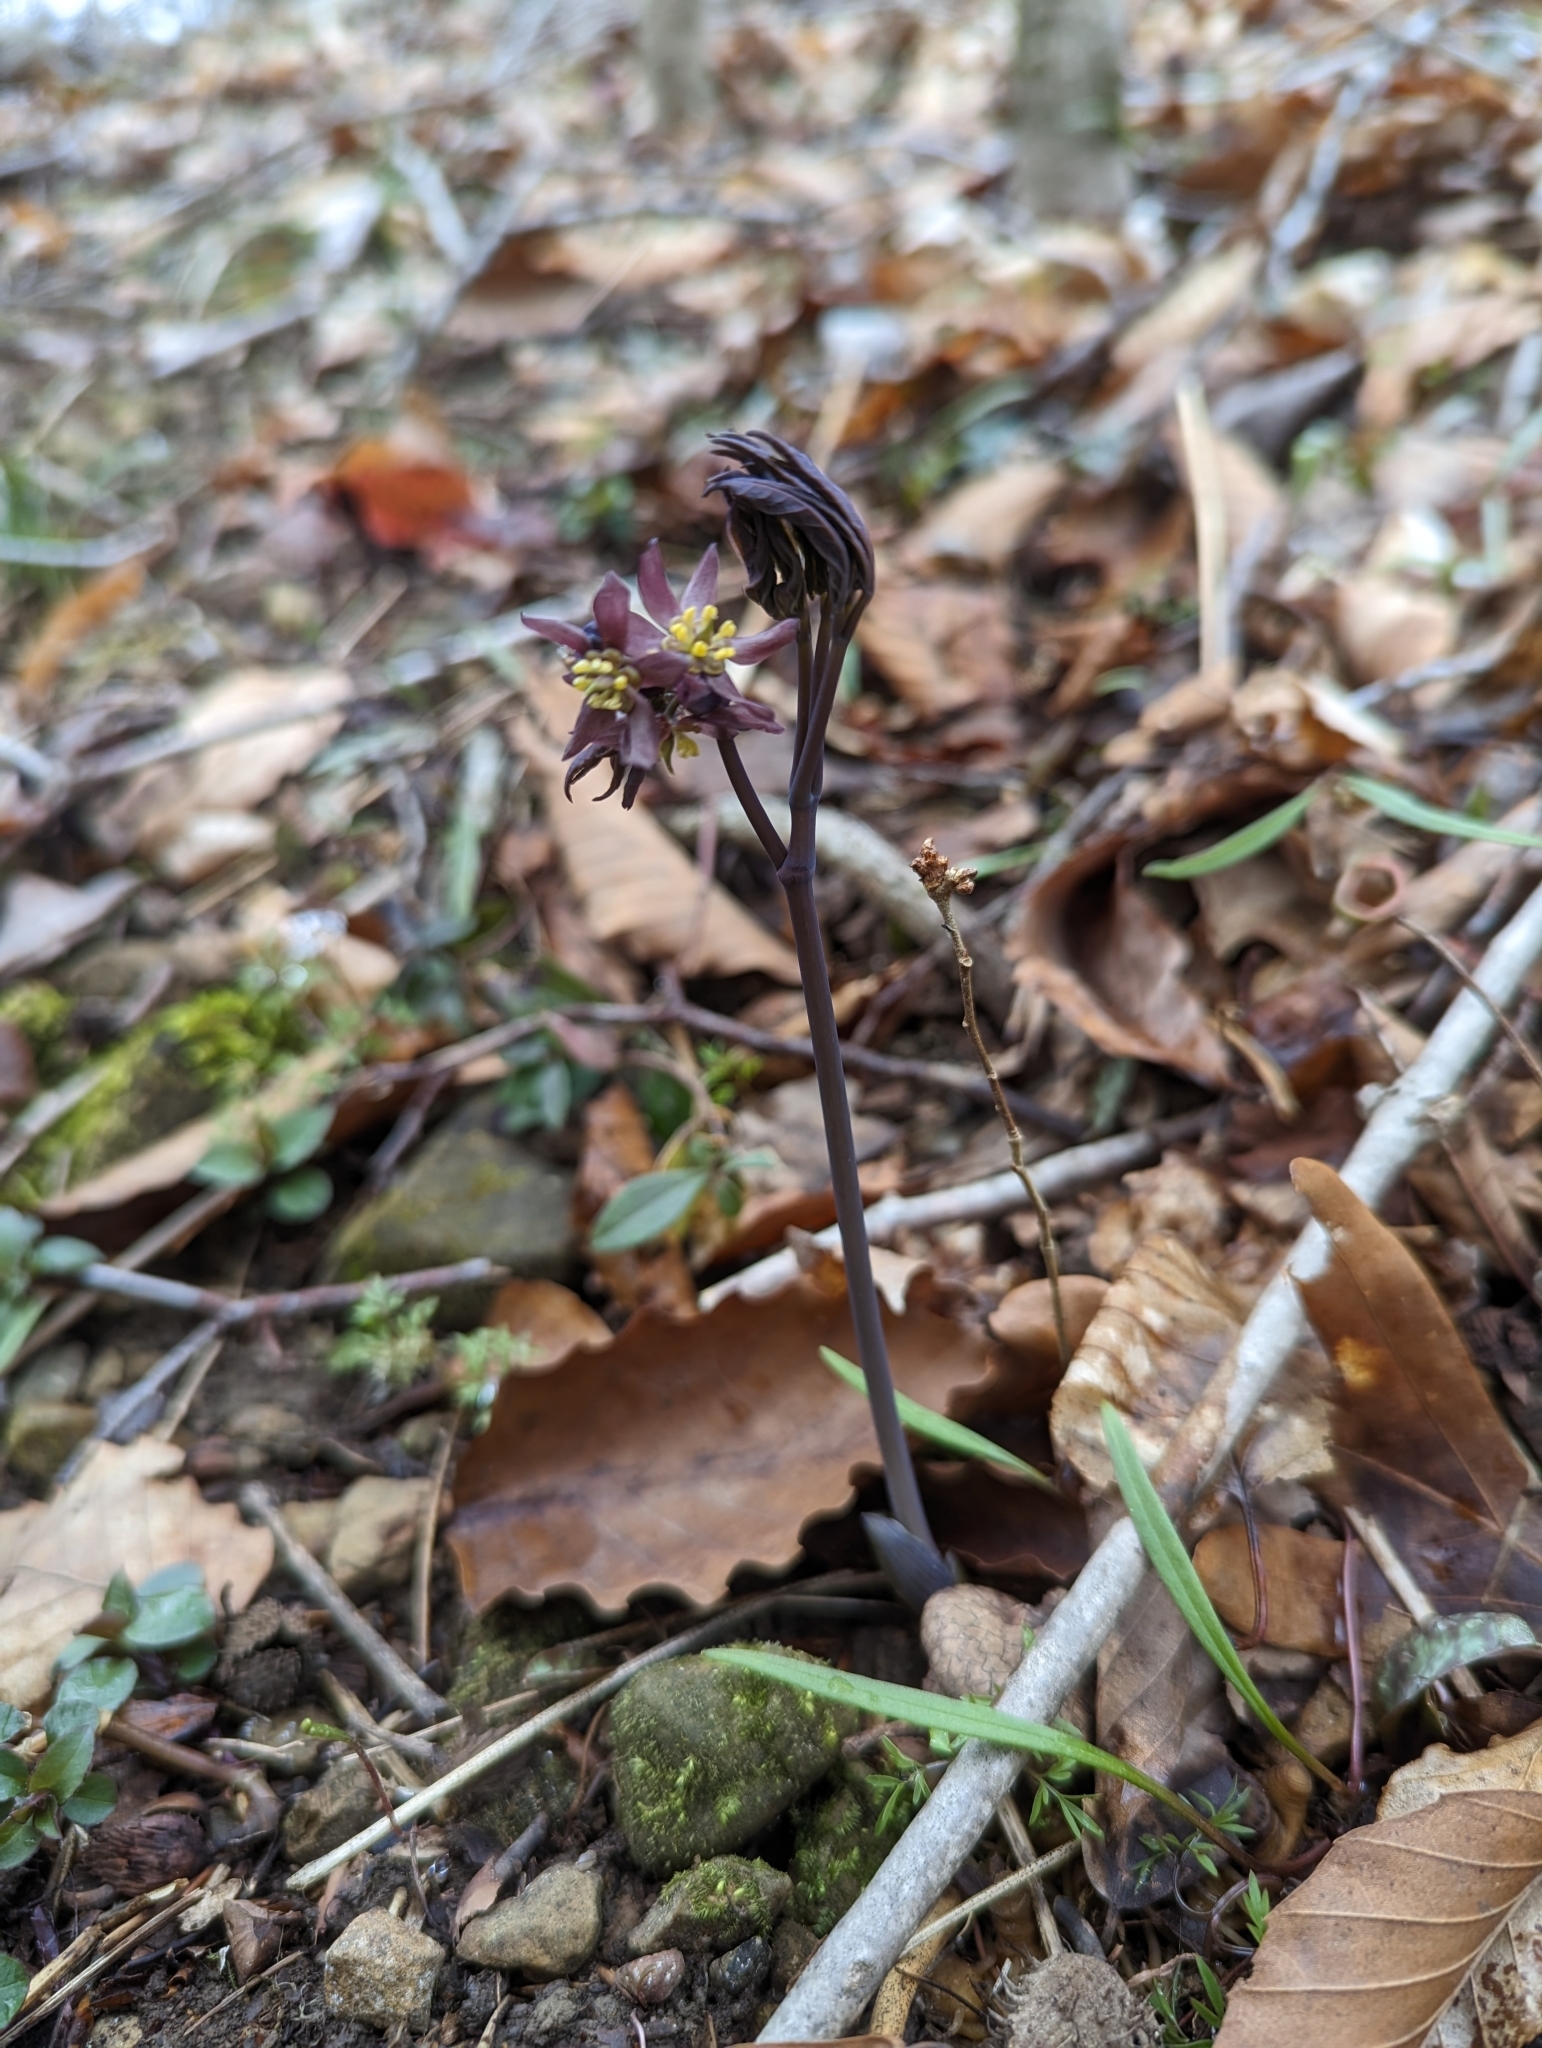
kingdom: Plantae
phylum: Tracheophyta
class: Magnoliopsida
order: Ranunculales
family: Berberidaceae
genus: Caulophyllum
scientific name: Caulophyllum giganteum
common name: Blue cohosh
